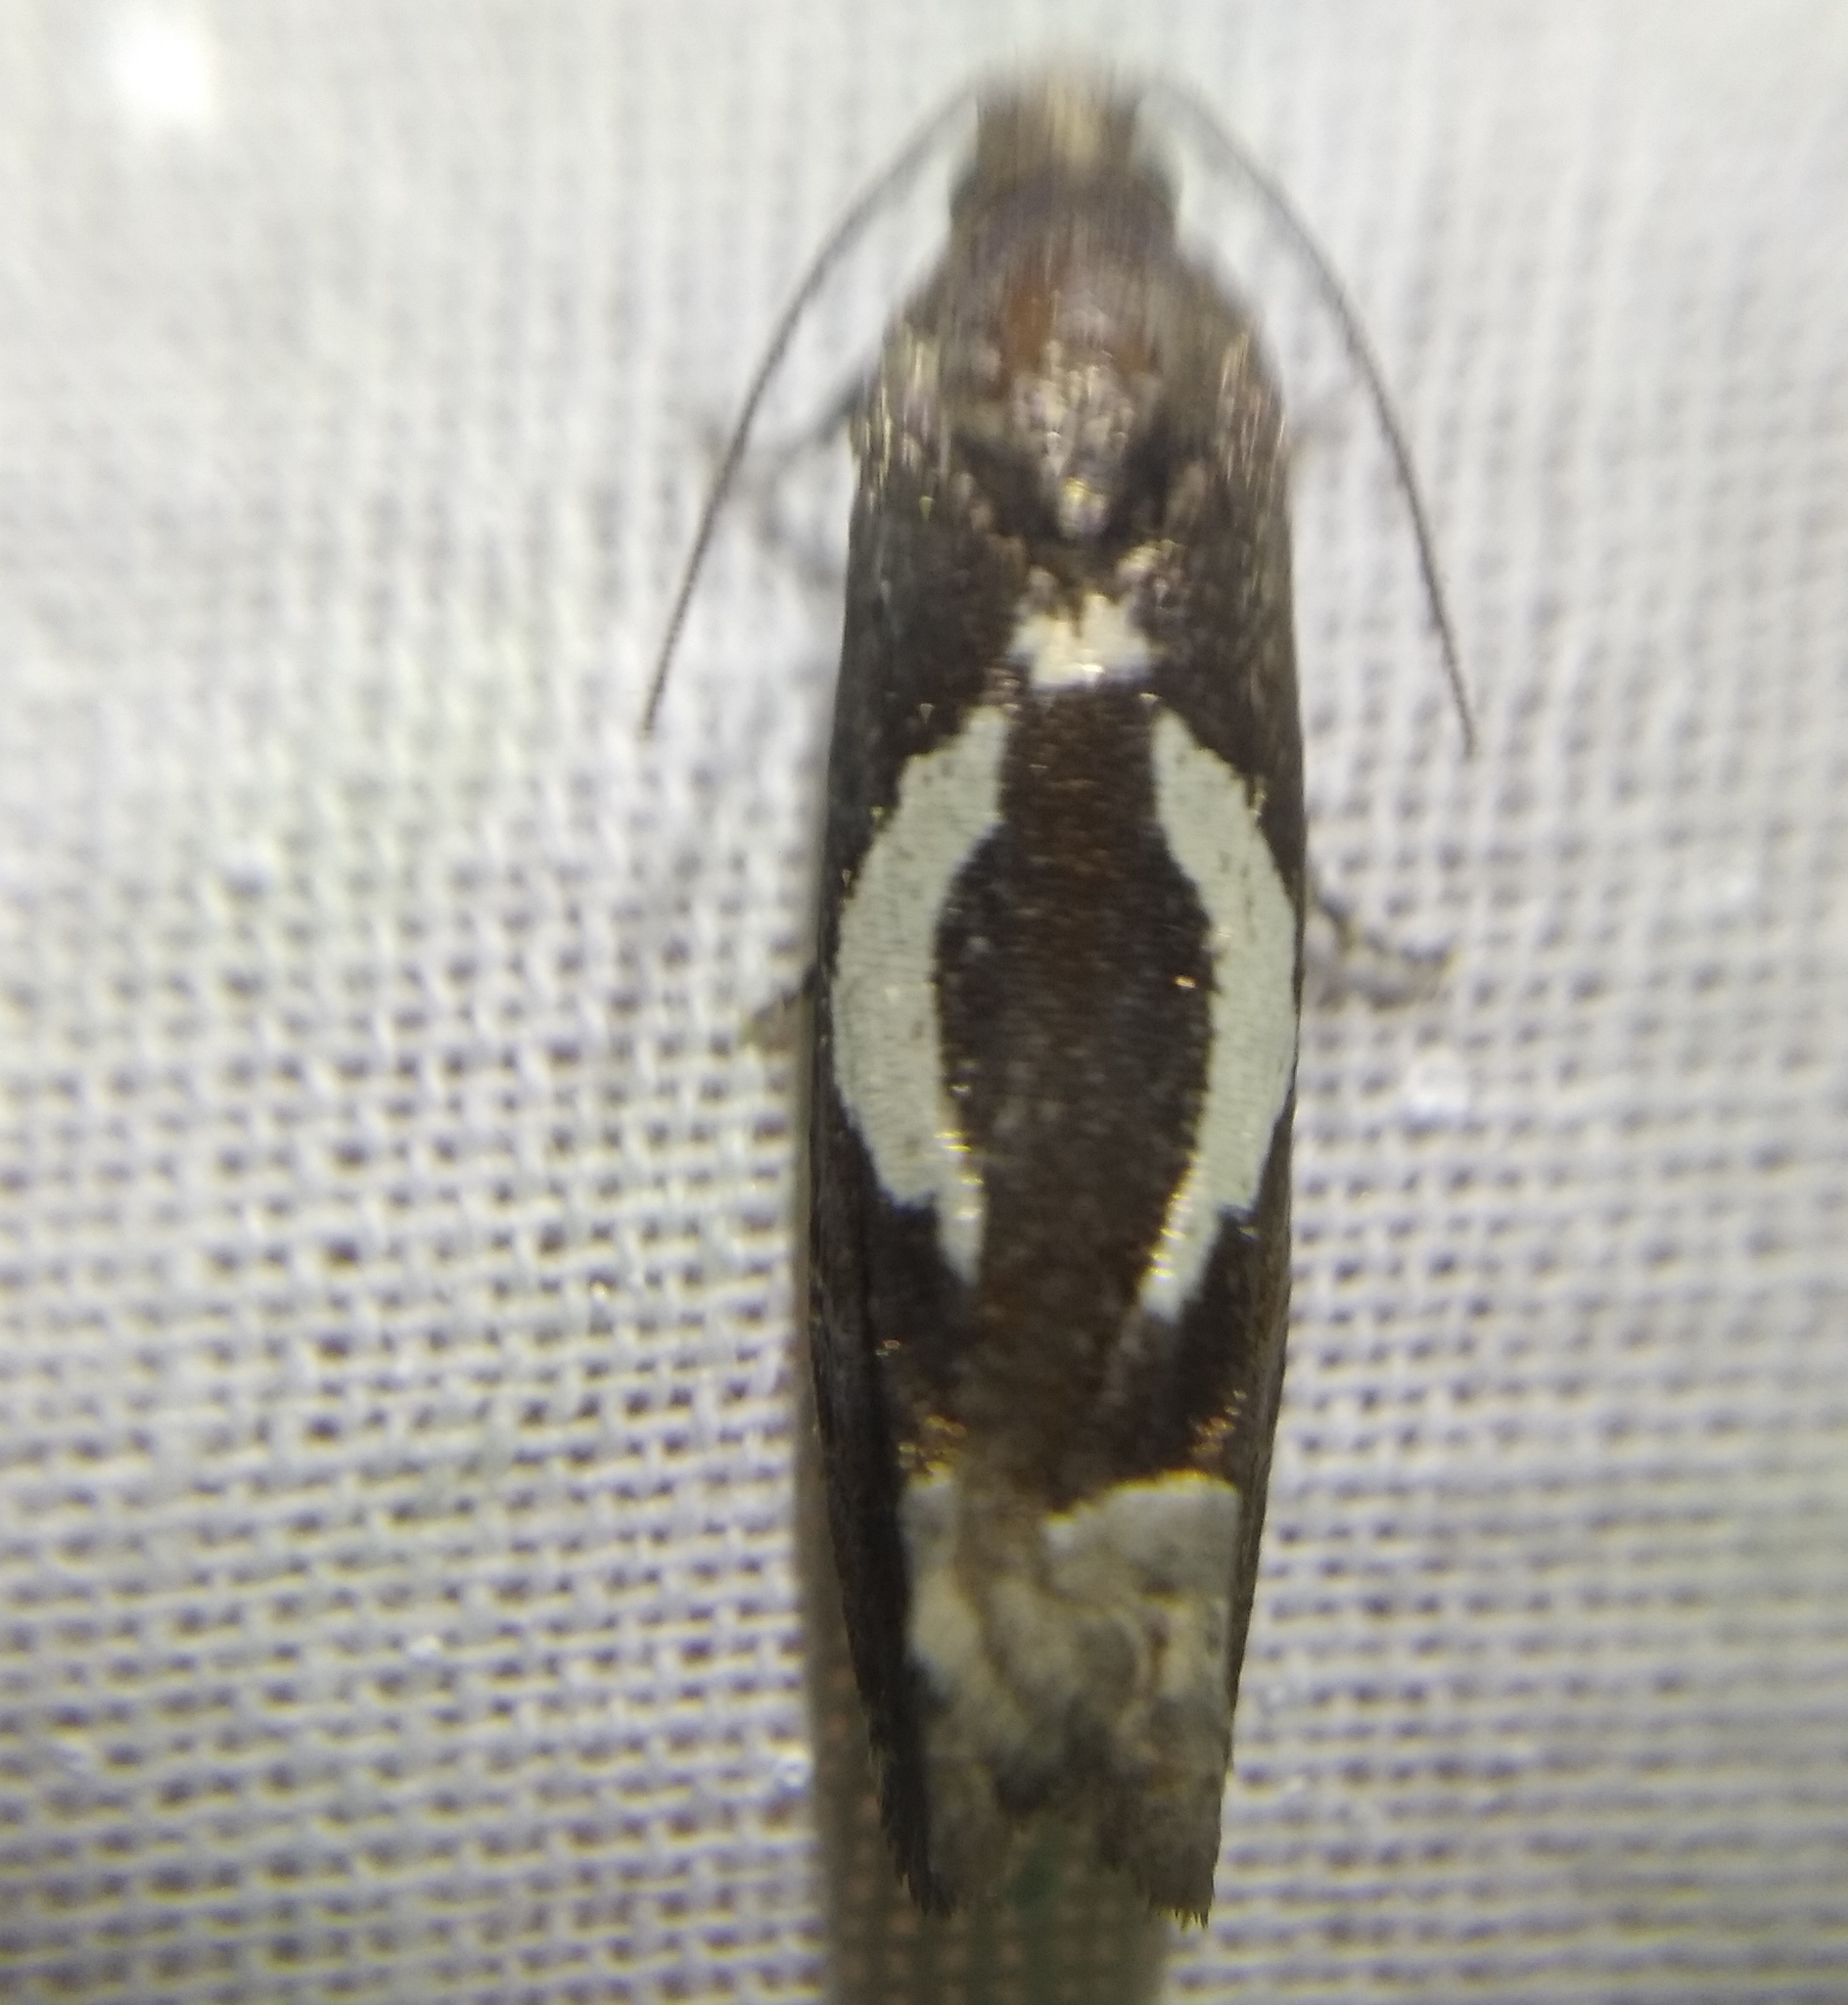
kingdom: Animalia
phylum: Arthropoda
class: Insecta
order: Lepidoptera
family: Tortricidae
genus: Epiblema
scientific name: Epiblema foenella
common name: White-foot bell
